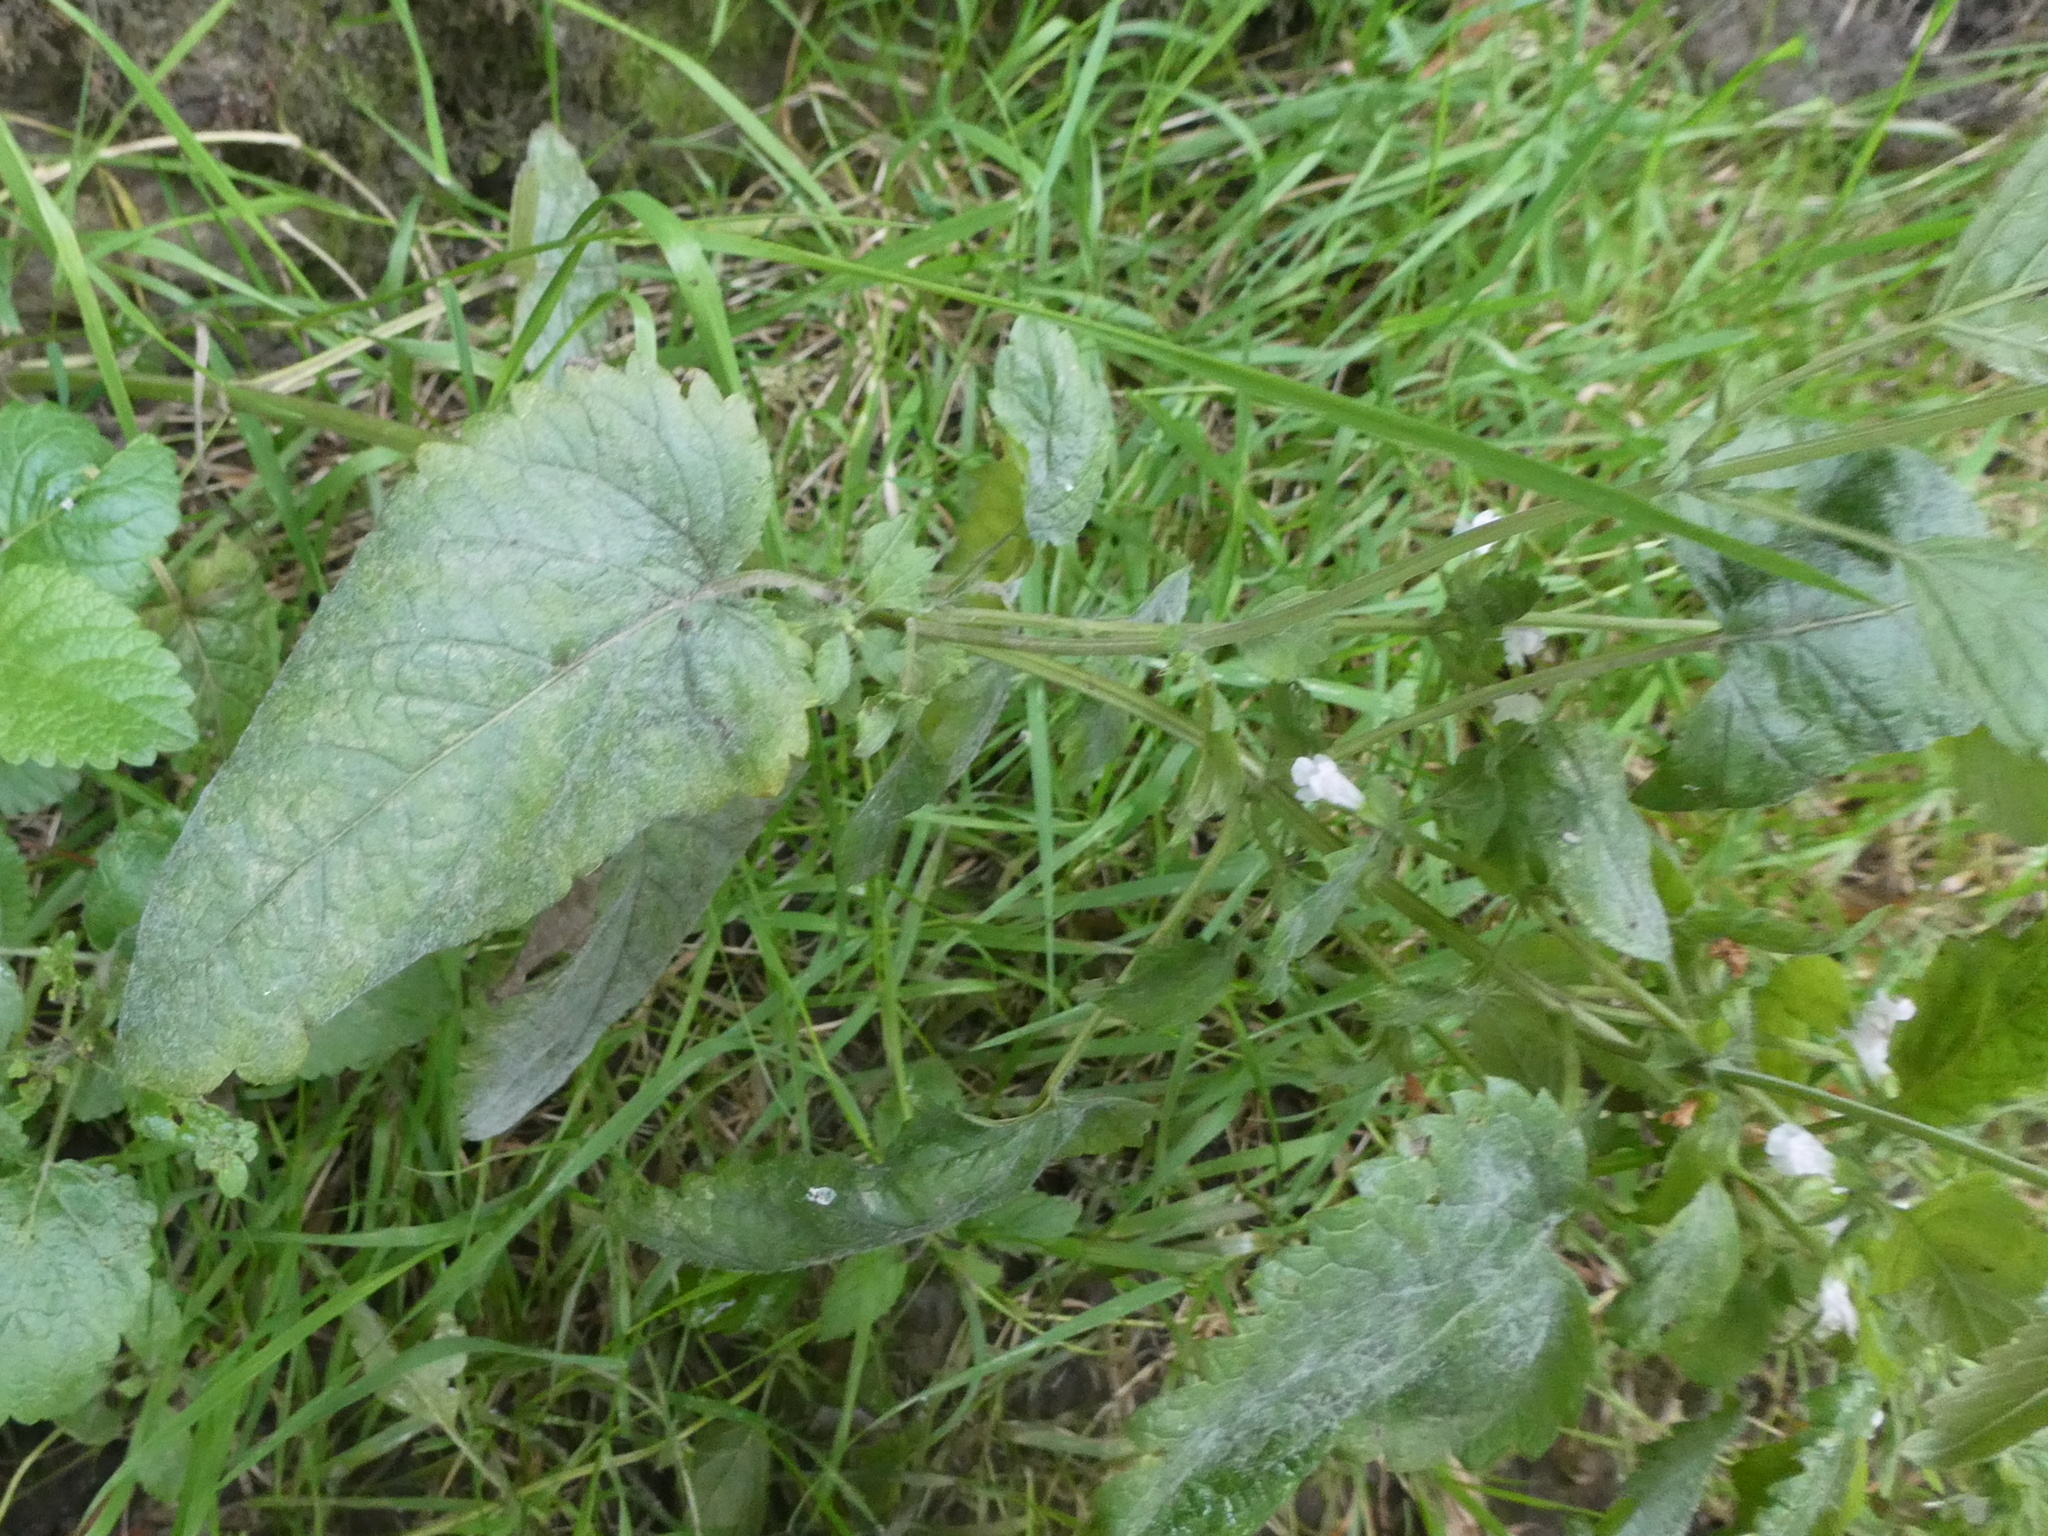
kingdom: Plantae
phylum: Tracheophyta
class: Magnoliopsida
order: Lamiales
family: Lamiaceae
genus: Melissa
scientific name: Melissa officinalis
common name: Balm
